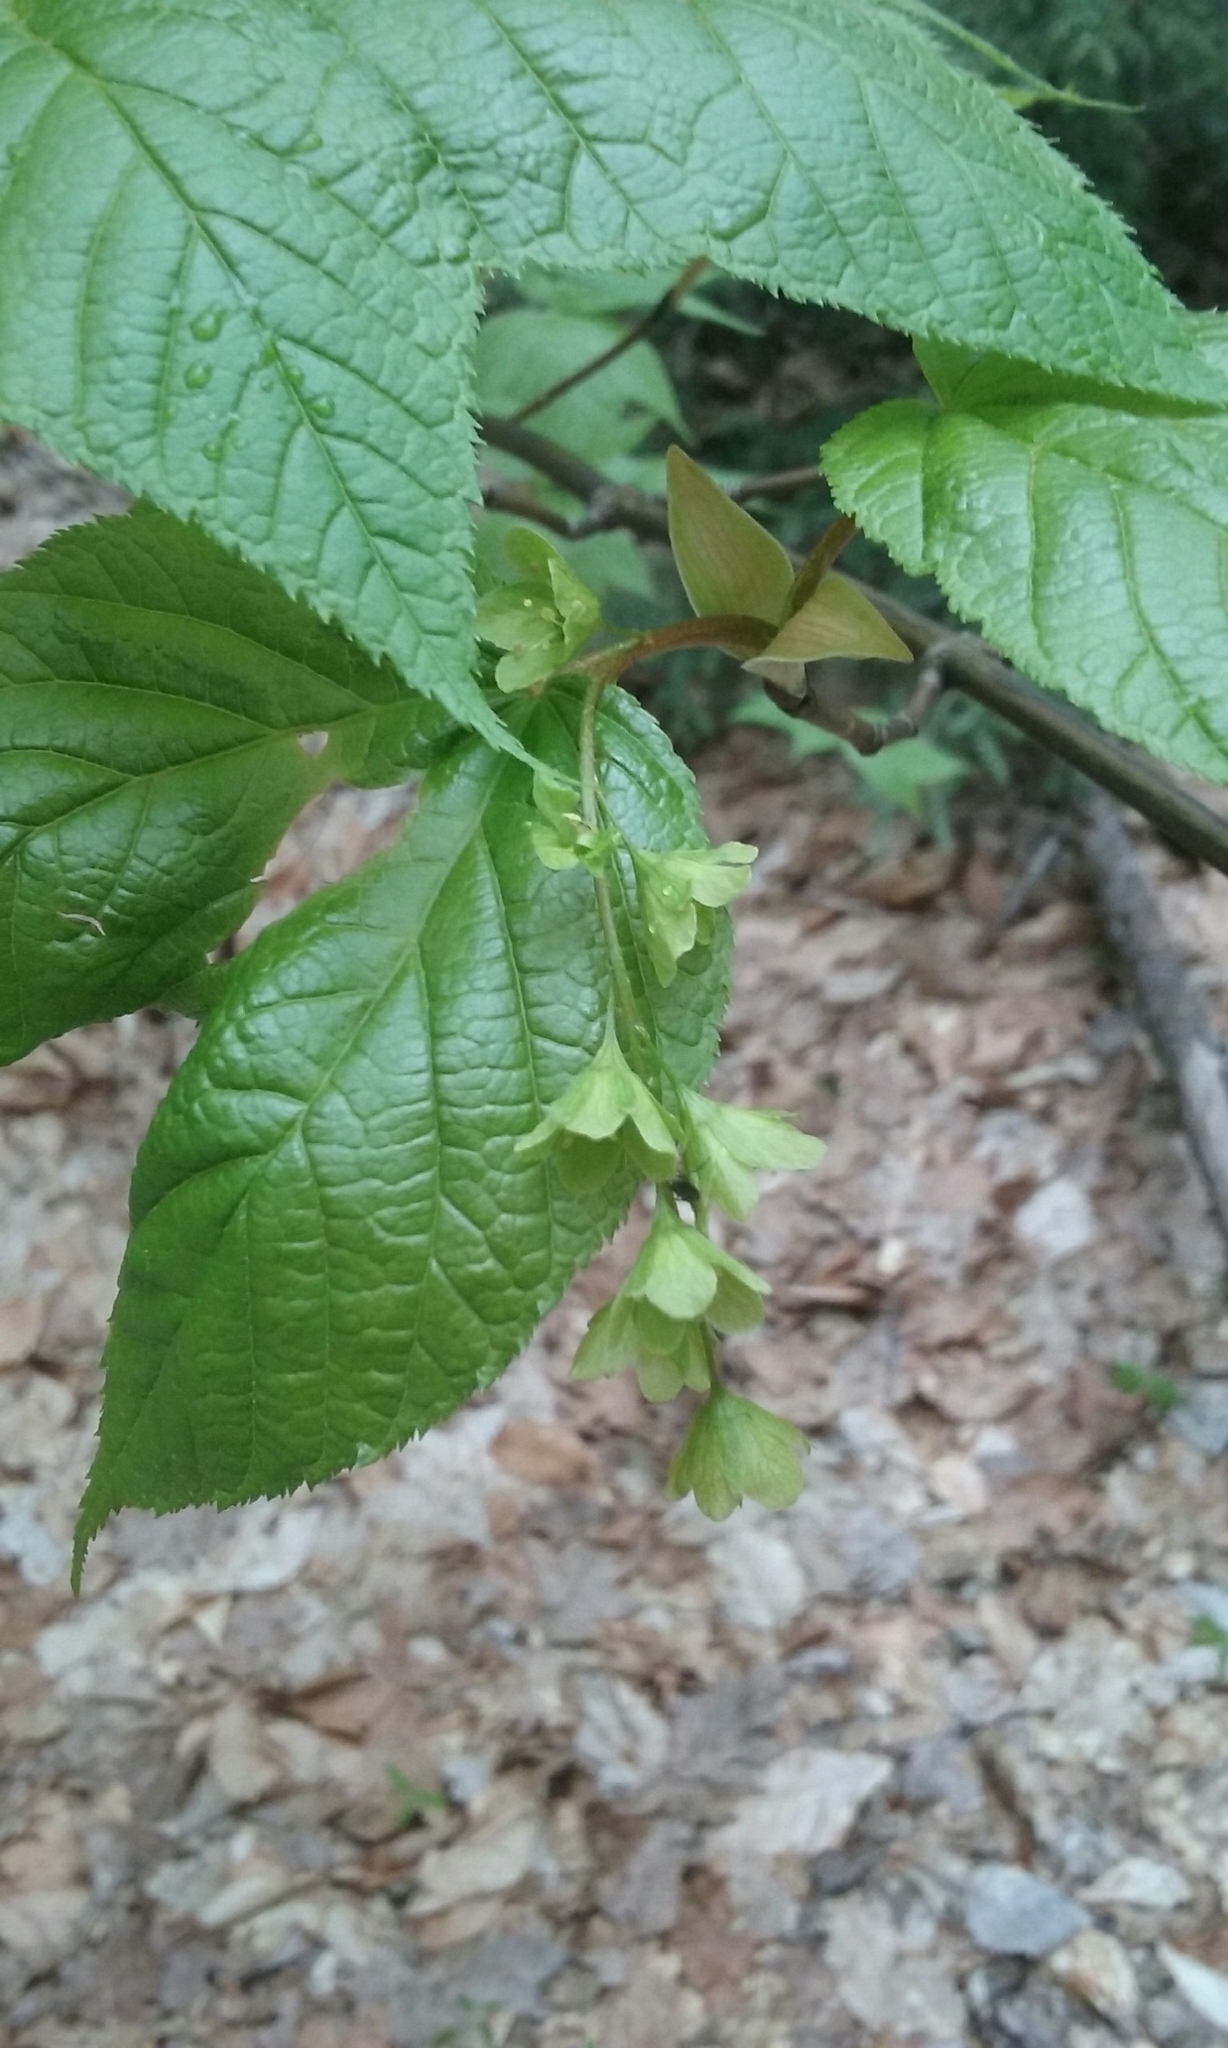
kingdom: Plantae
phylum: Tracheophyta
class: Magnoliopsida
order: Sapindales
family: Sapindaceae
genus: Acer
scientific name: Acer pensylvanicum
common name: Moosewood
